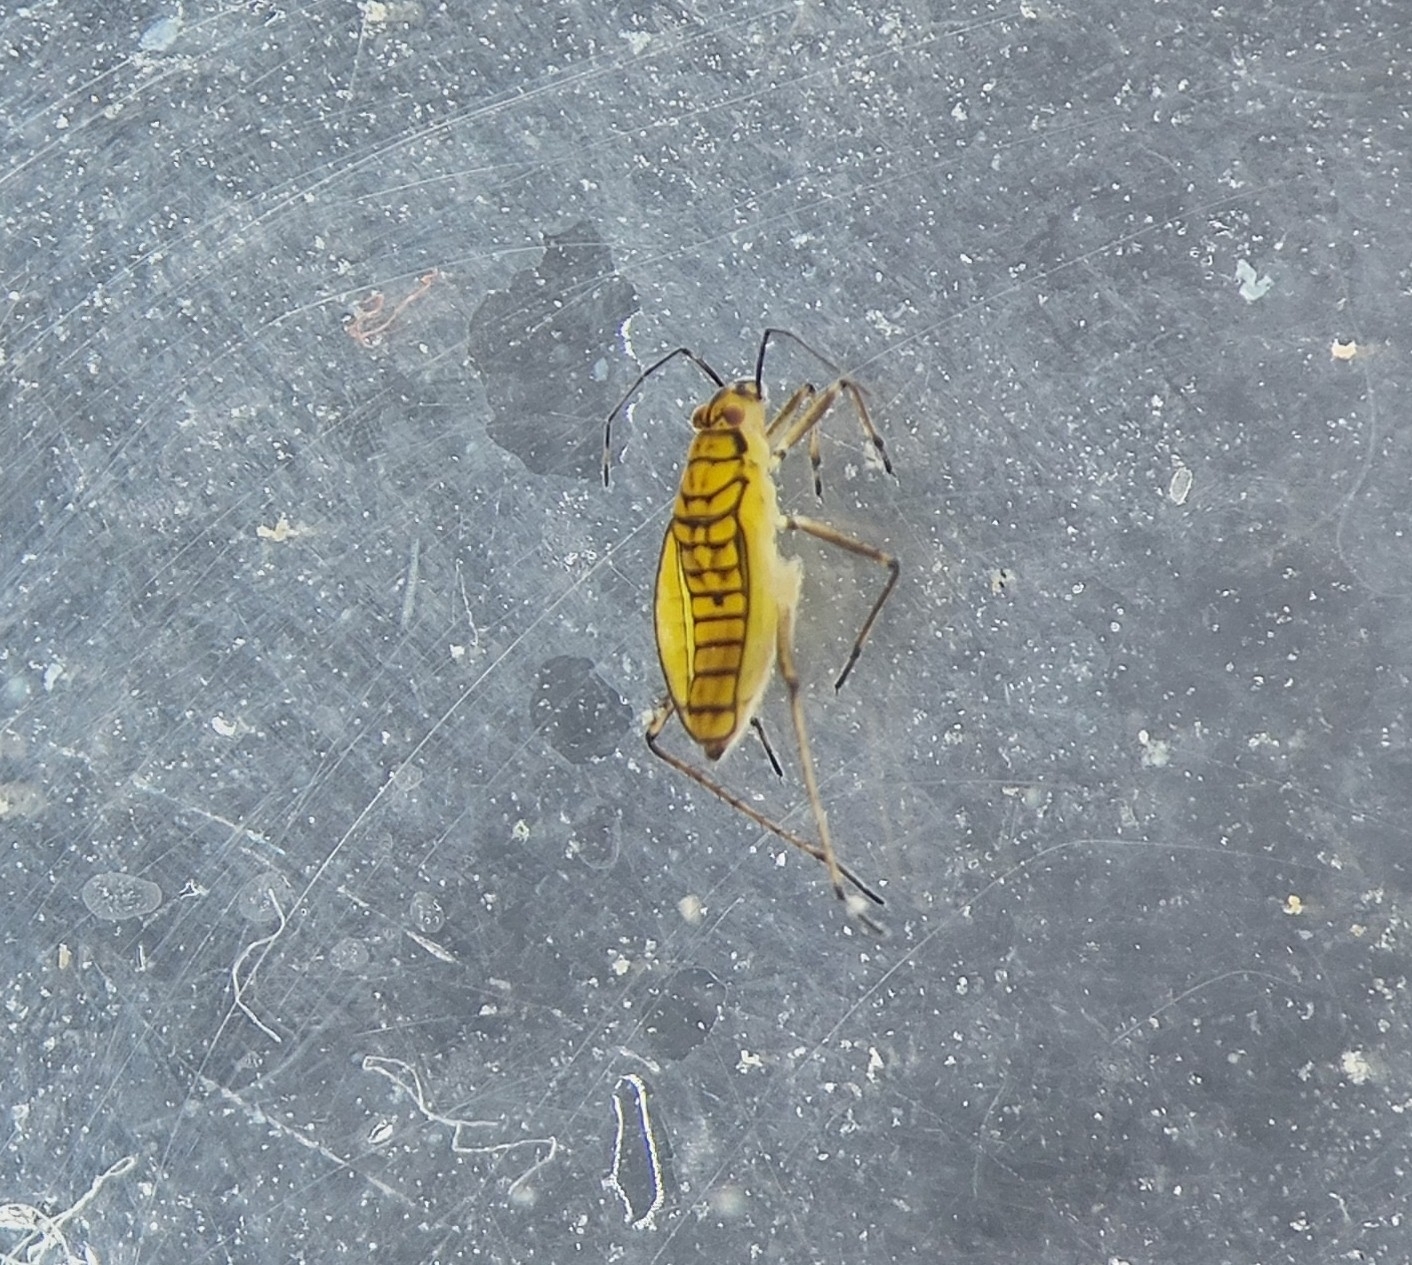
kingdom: Animalia
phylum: Arthropoda
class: Insecta
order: Hemiptera
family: Mesoveliidae
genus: Mesovelia
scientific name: Mesovelia furcata
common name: Pondweed bug
